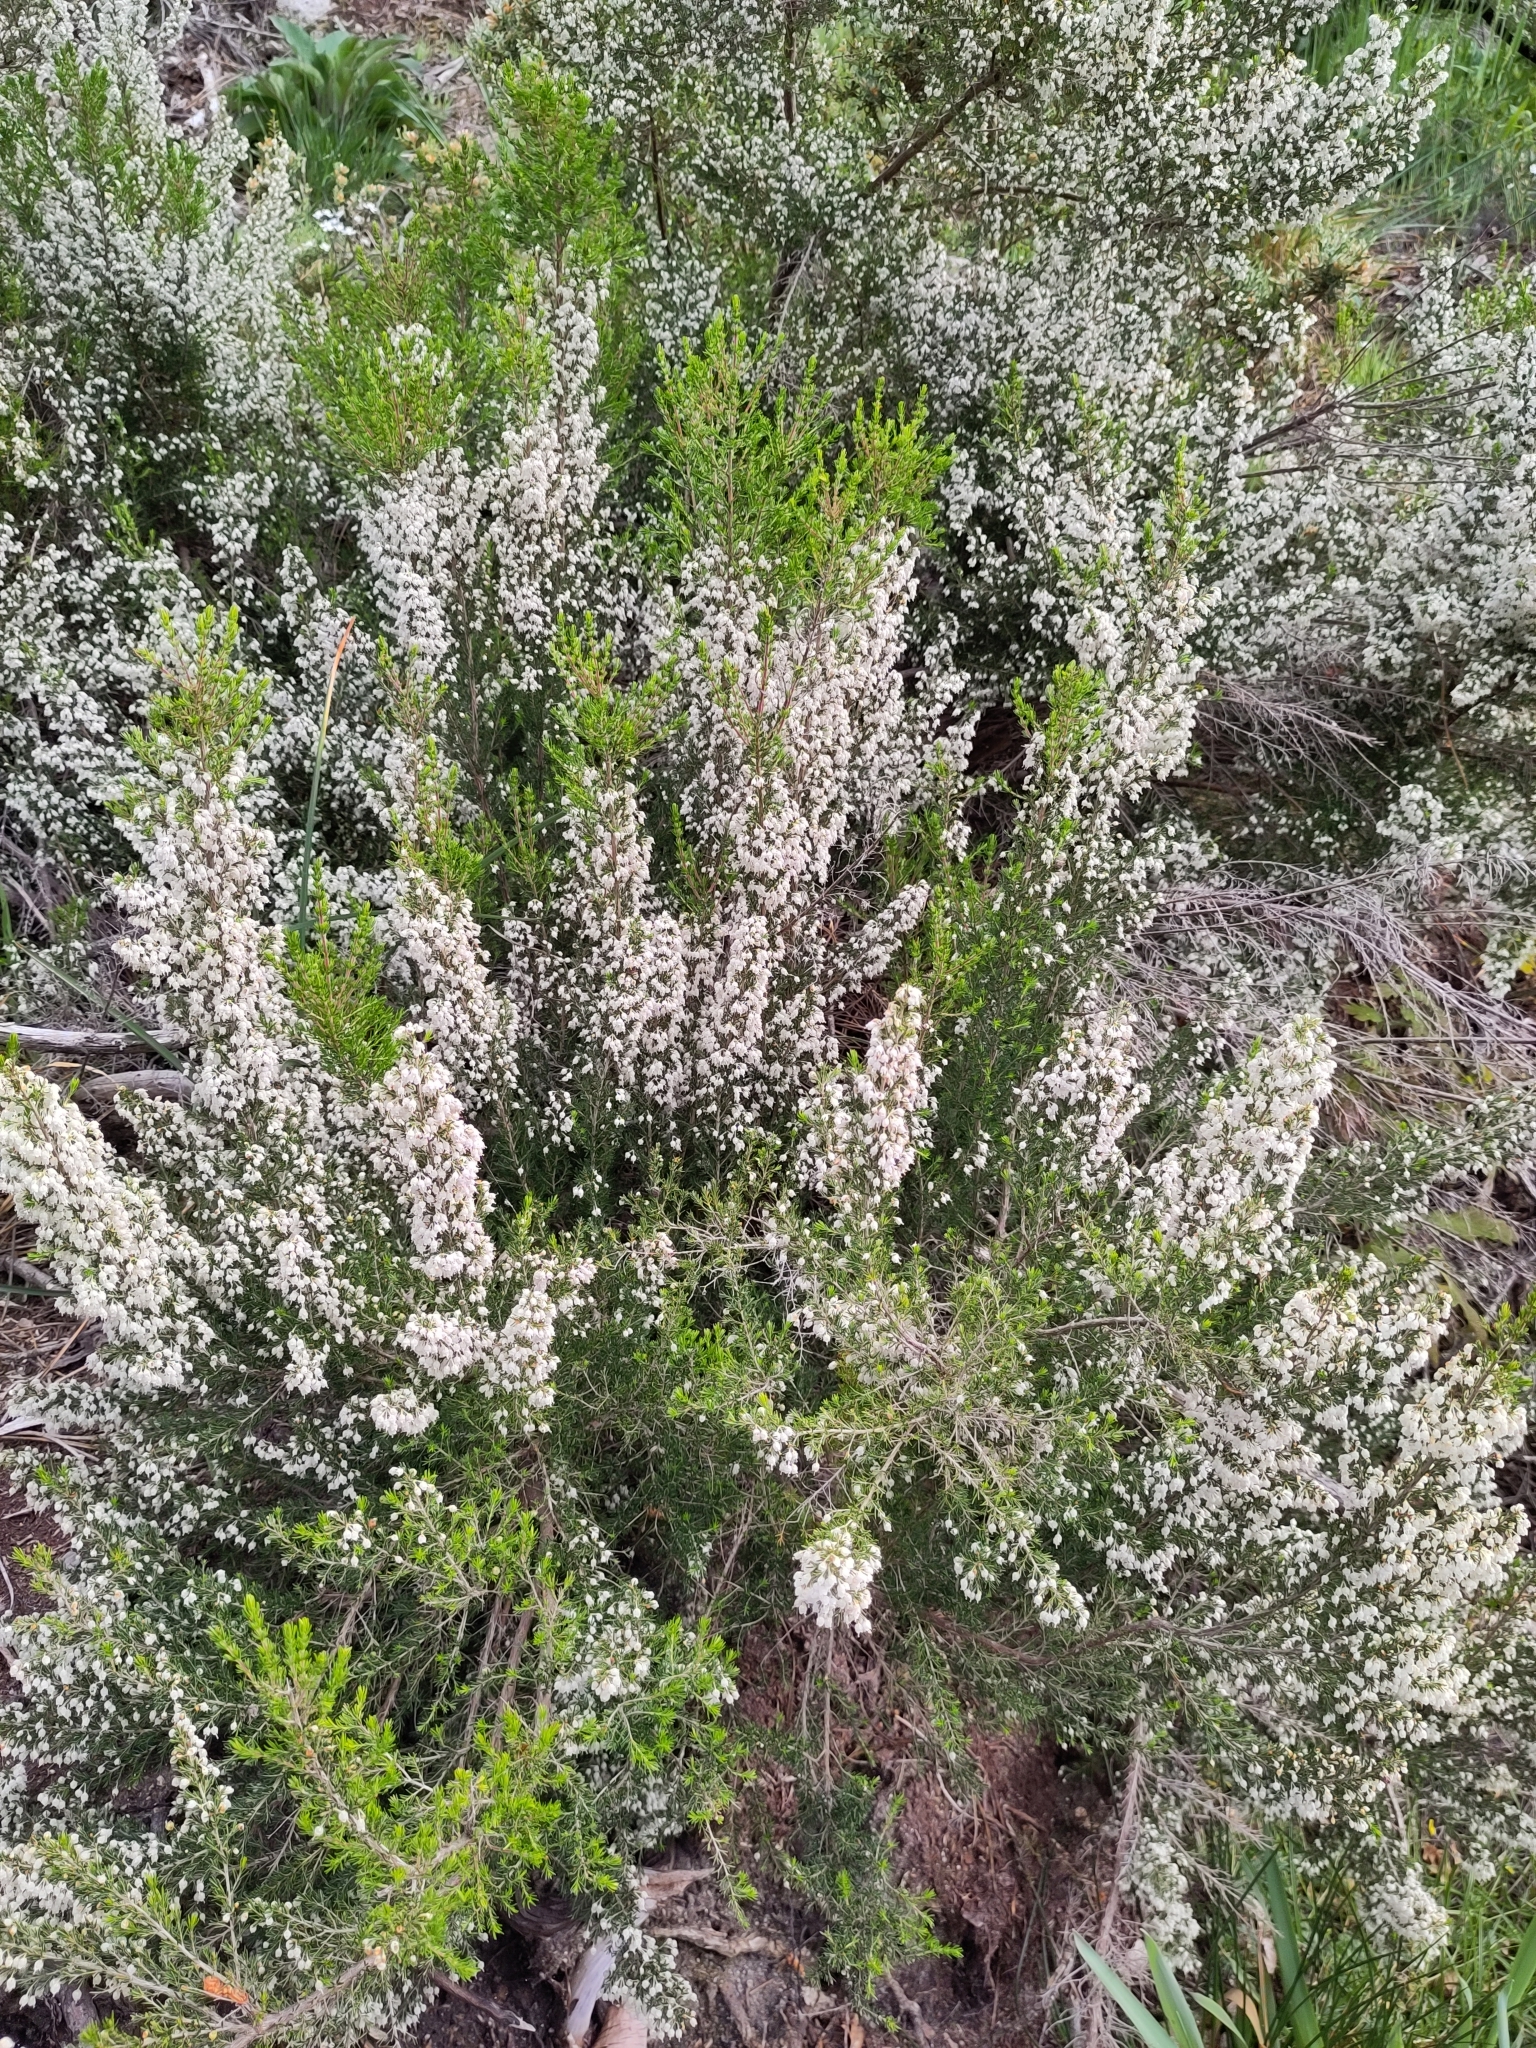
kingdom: Plantae
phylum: Tracheophyta
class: Magnoliopsida
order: Ericales
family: Ericaceae
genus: Erica
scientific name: Erica arborea
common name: Tree heath
